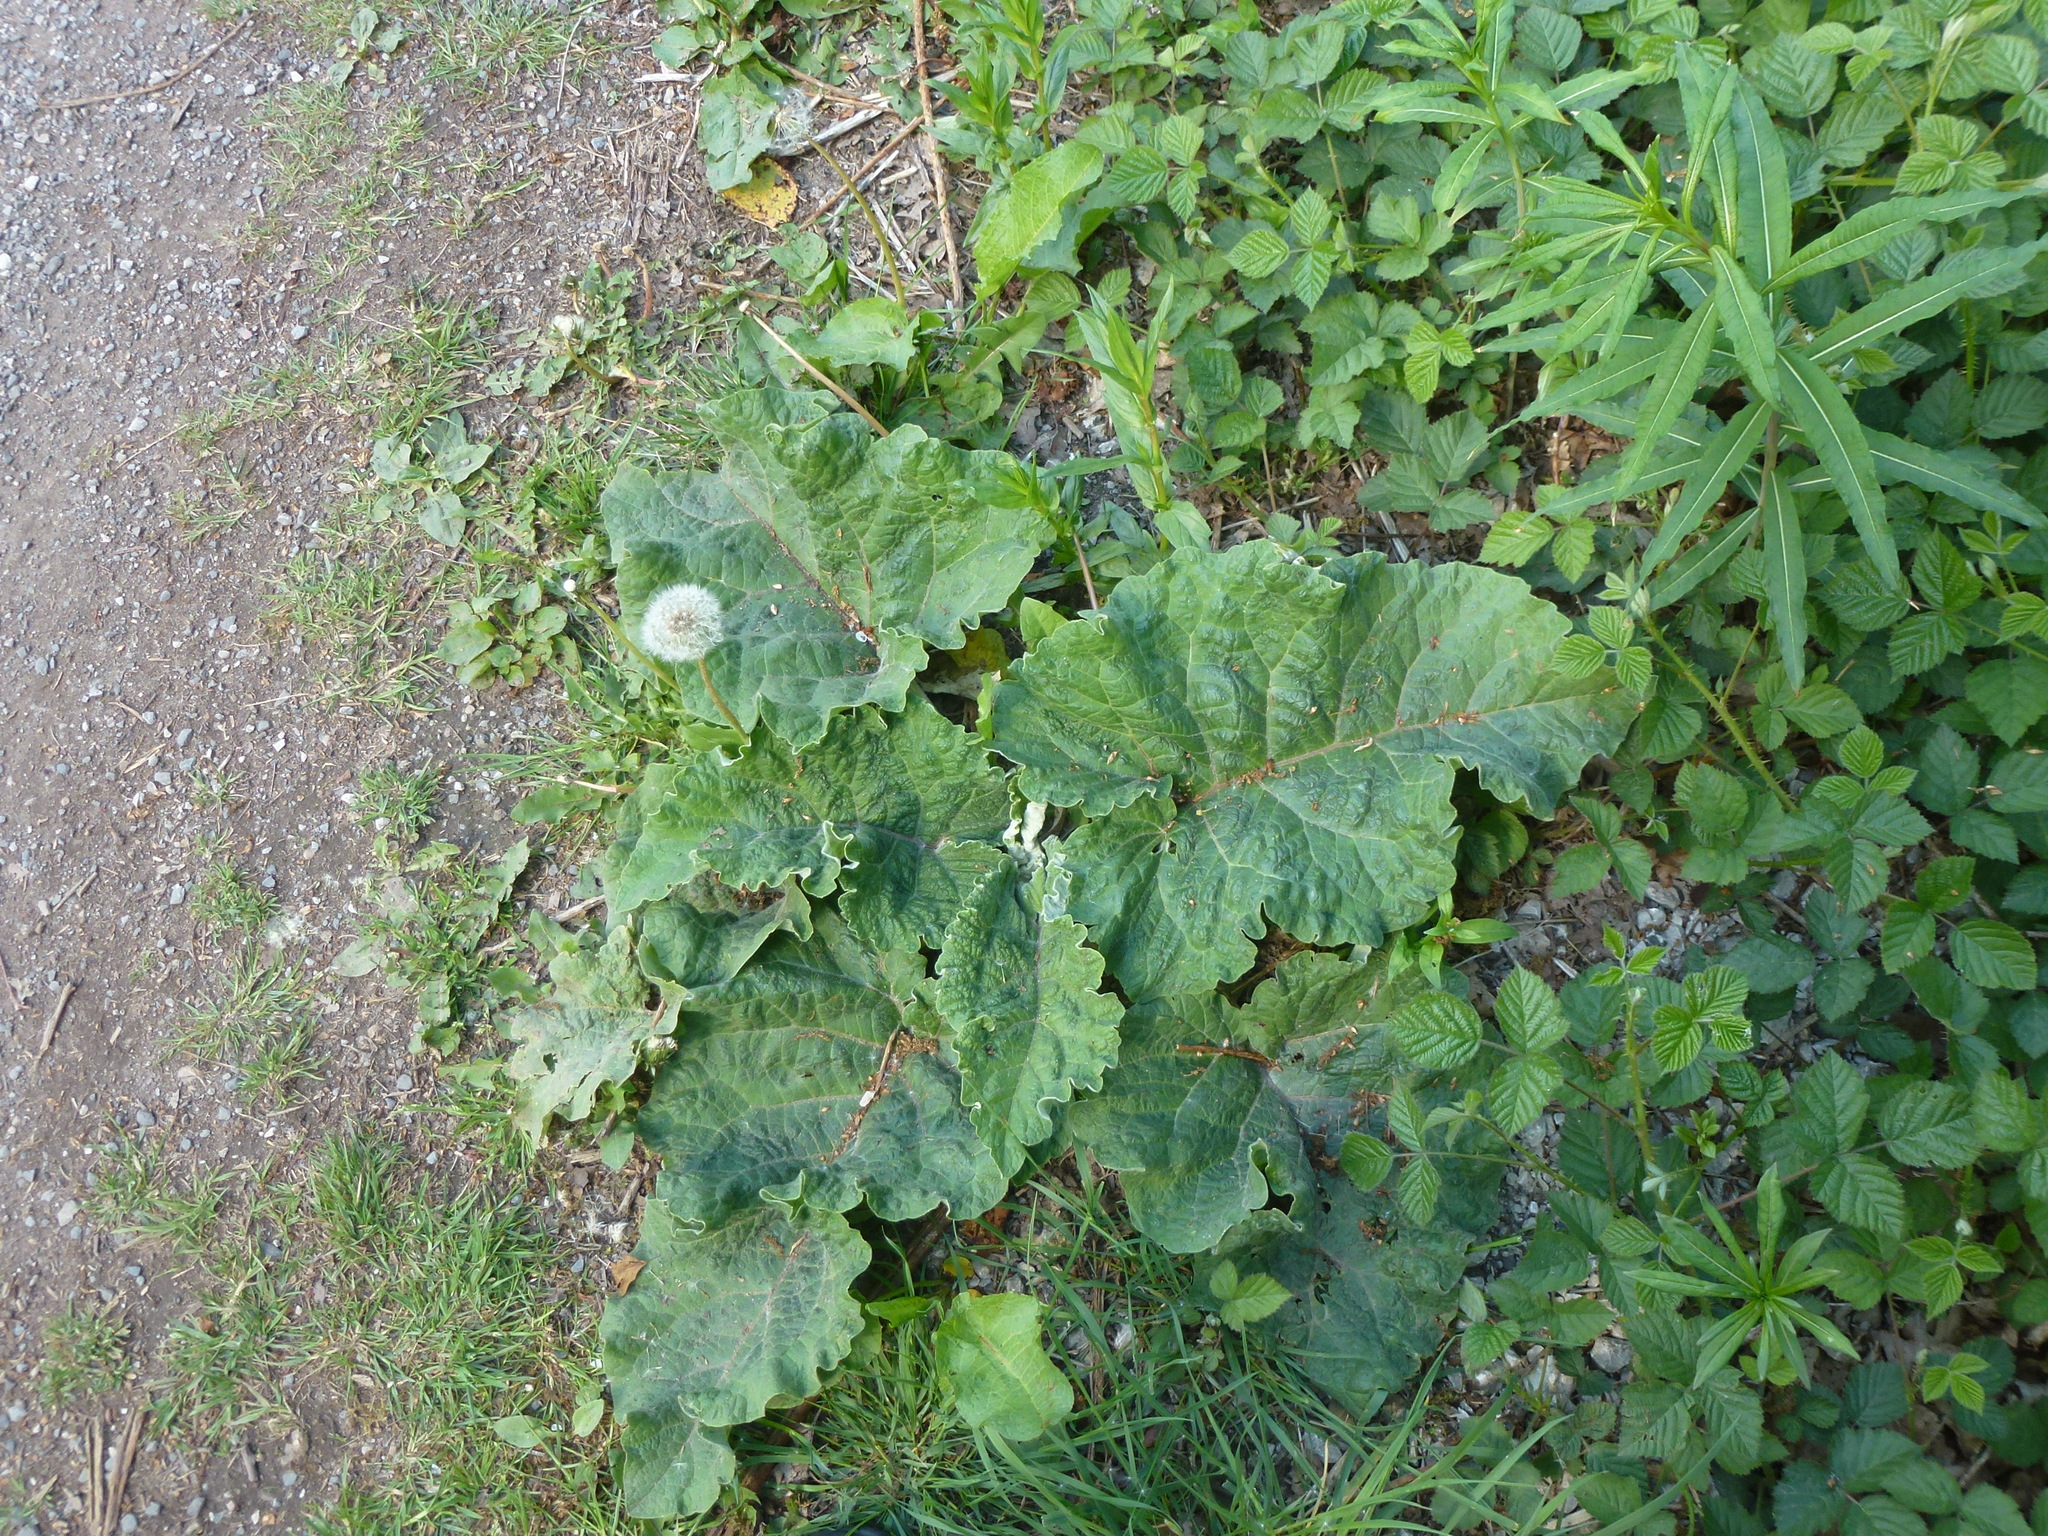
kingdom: Plantae
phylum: Tracheophyta
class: Magnoliopsida
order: Asterales
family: Asteraceae
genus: Arctium
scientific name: Arctium minus
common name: Lesser burdock
